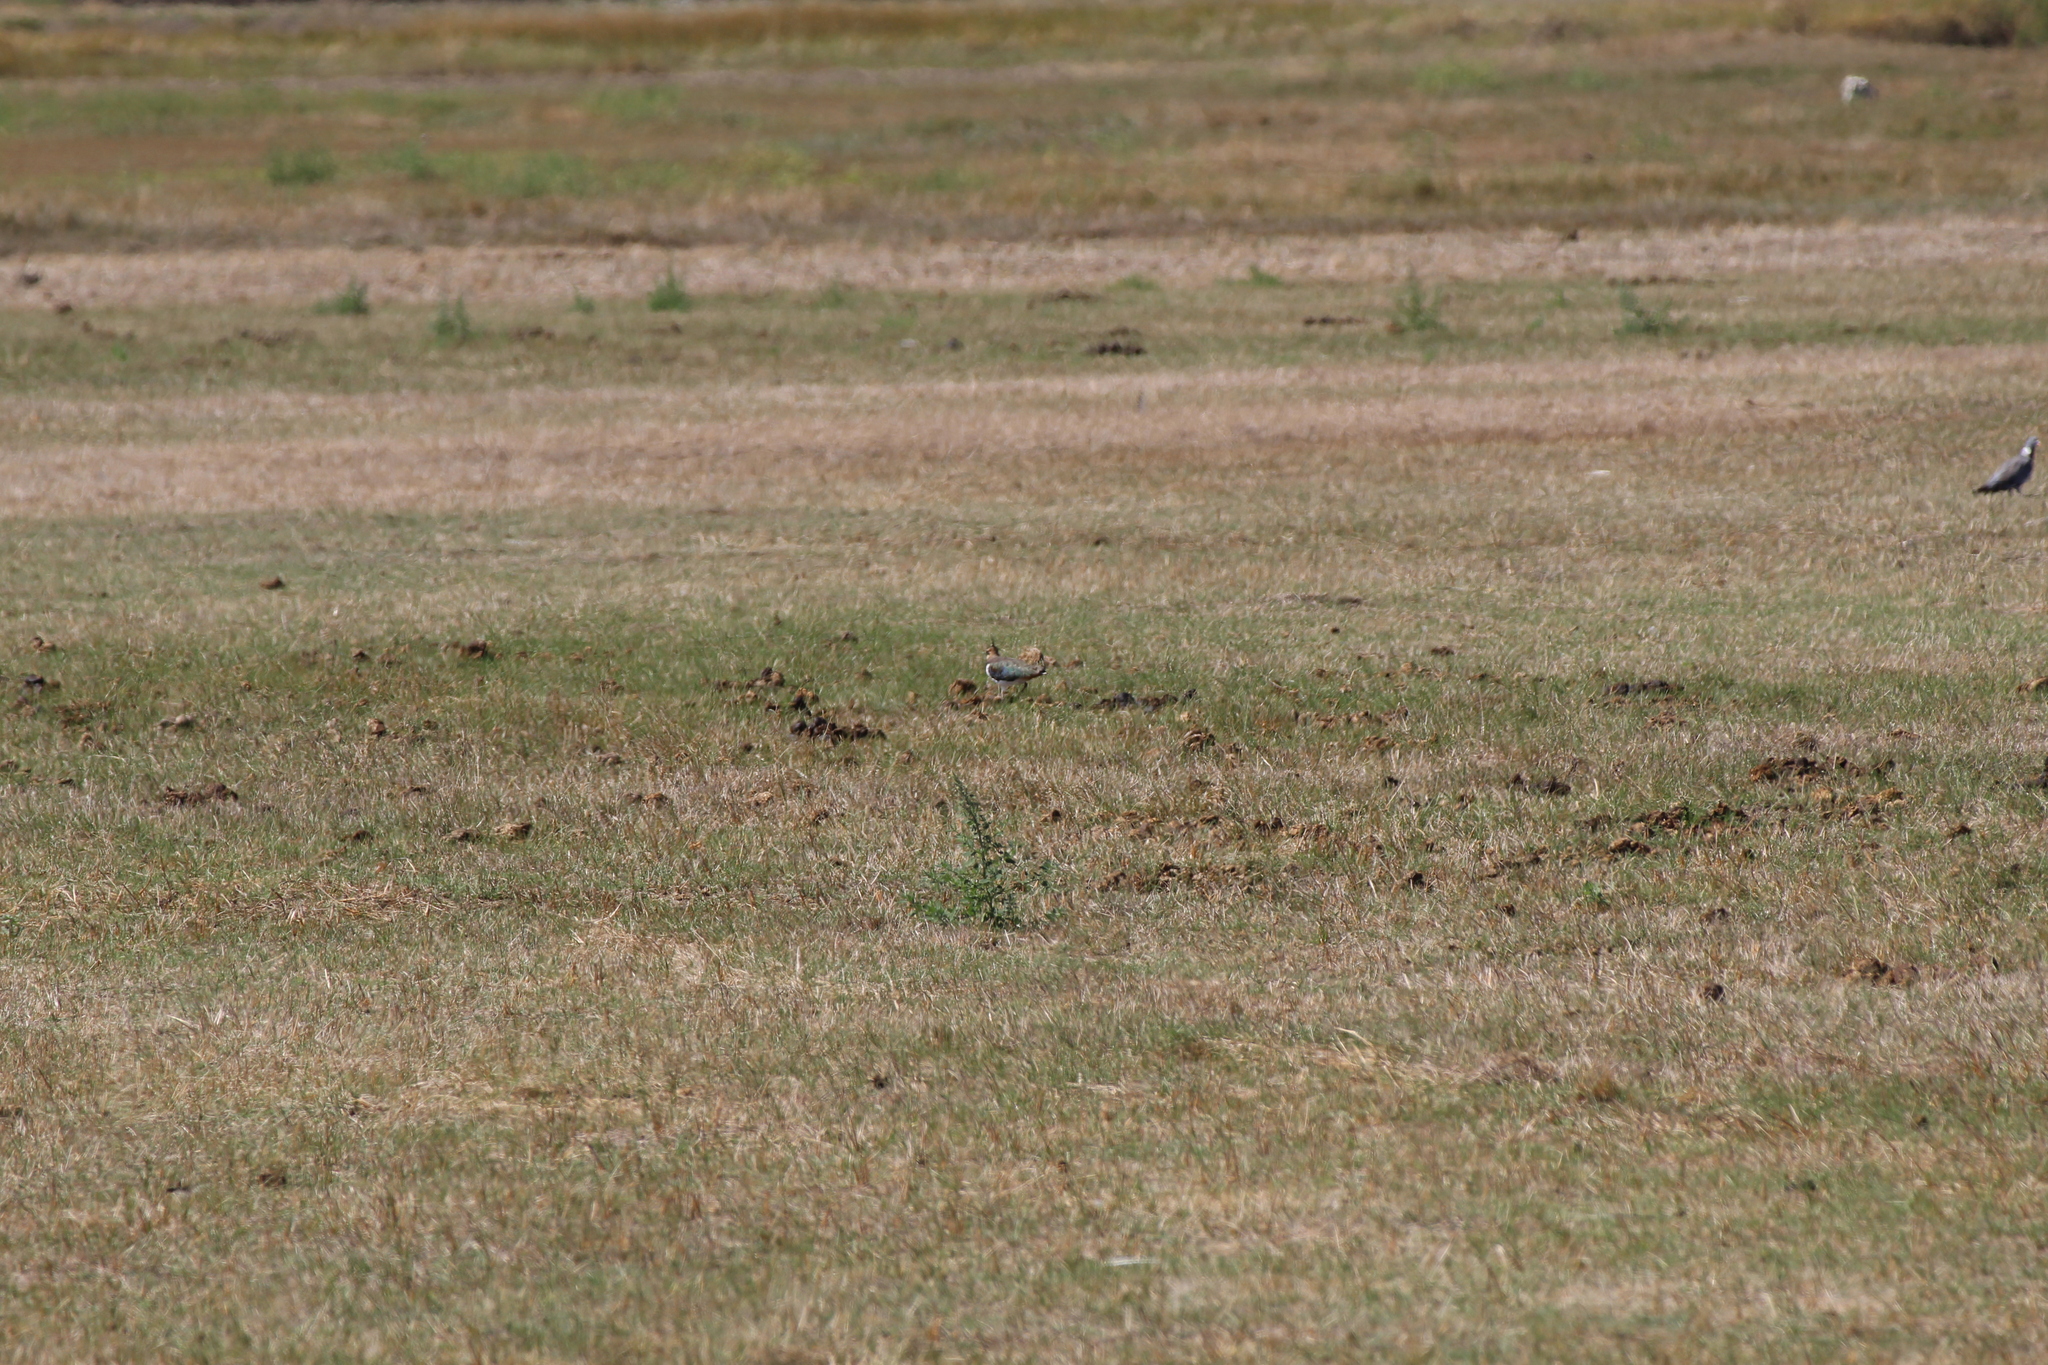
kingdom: Animalia
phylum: Chordata
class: Aves
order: Charadriiformes
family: Charadriidae
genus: Vanellus
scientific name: Vanellus vanellus
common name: Northern lapwing
